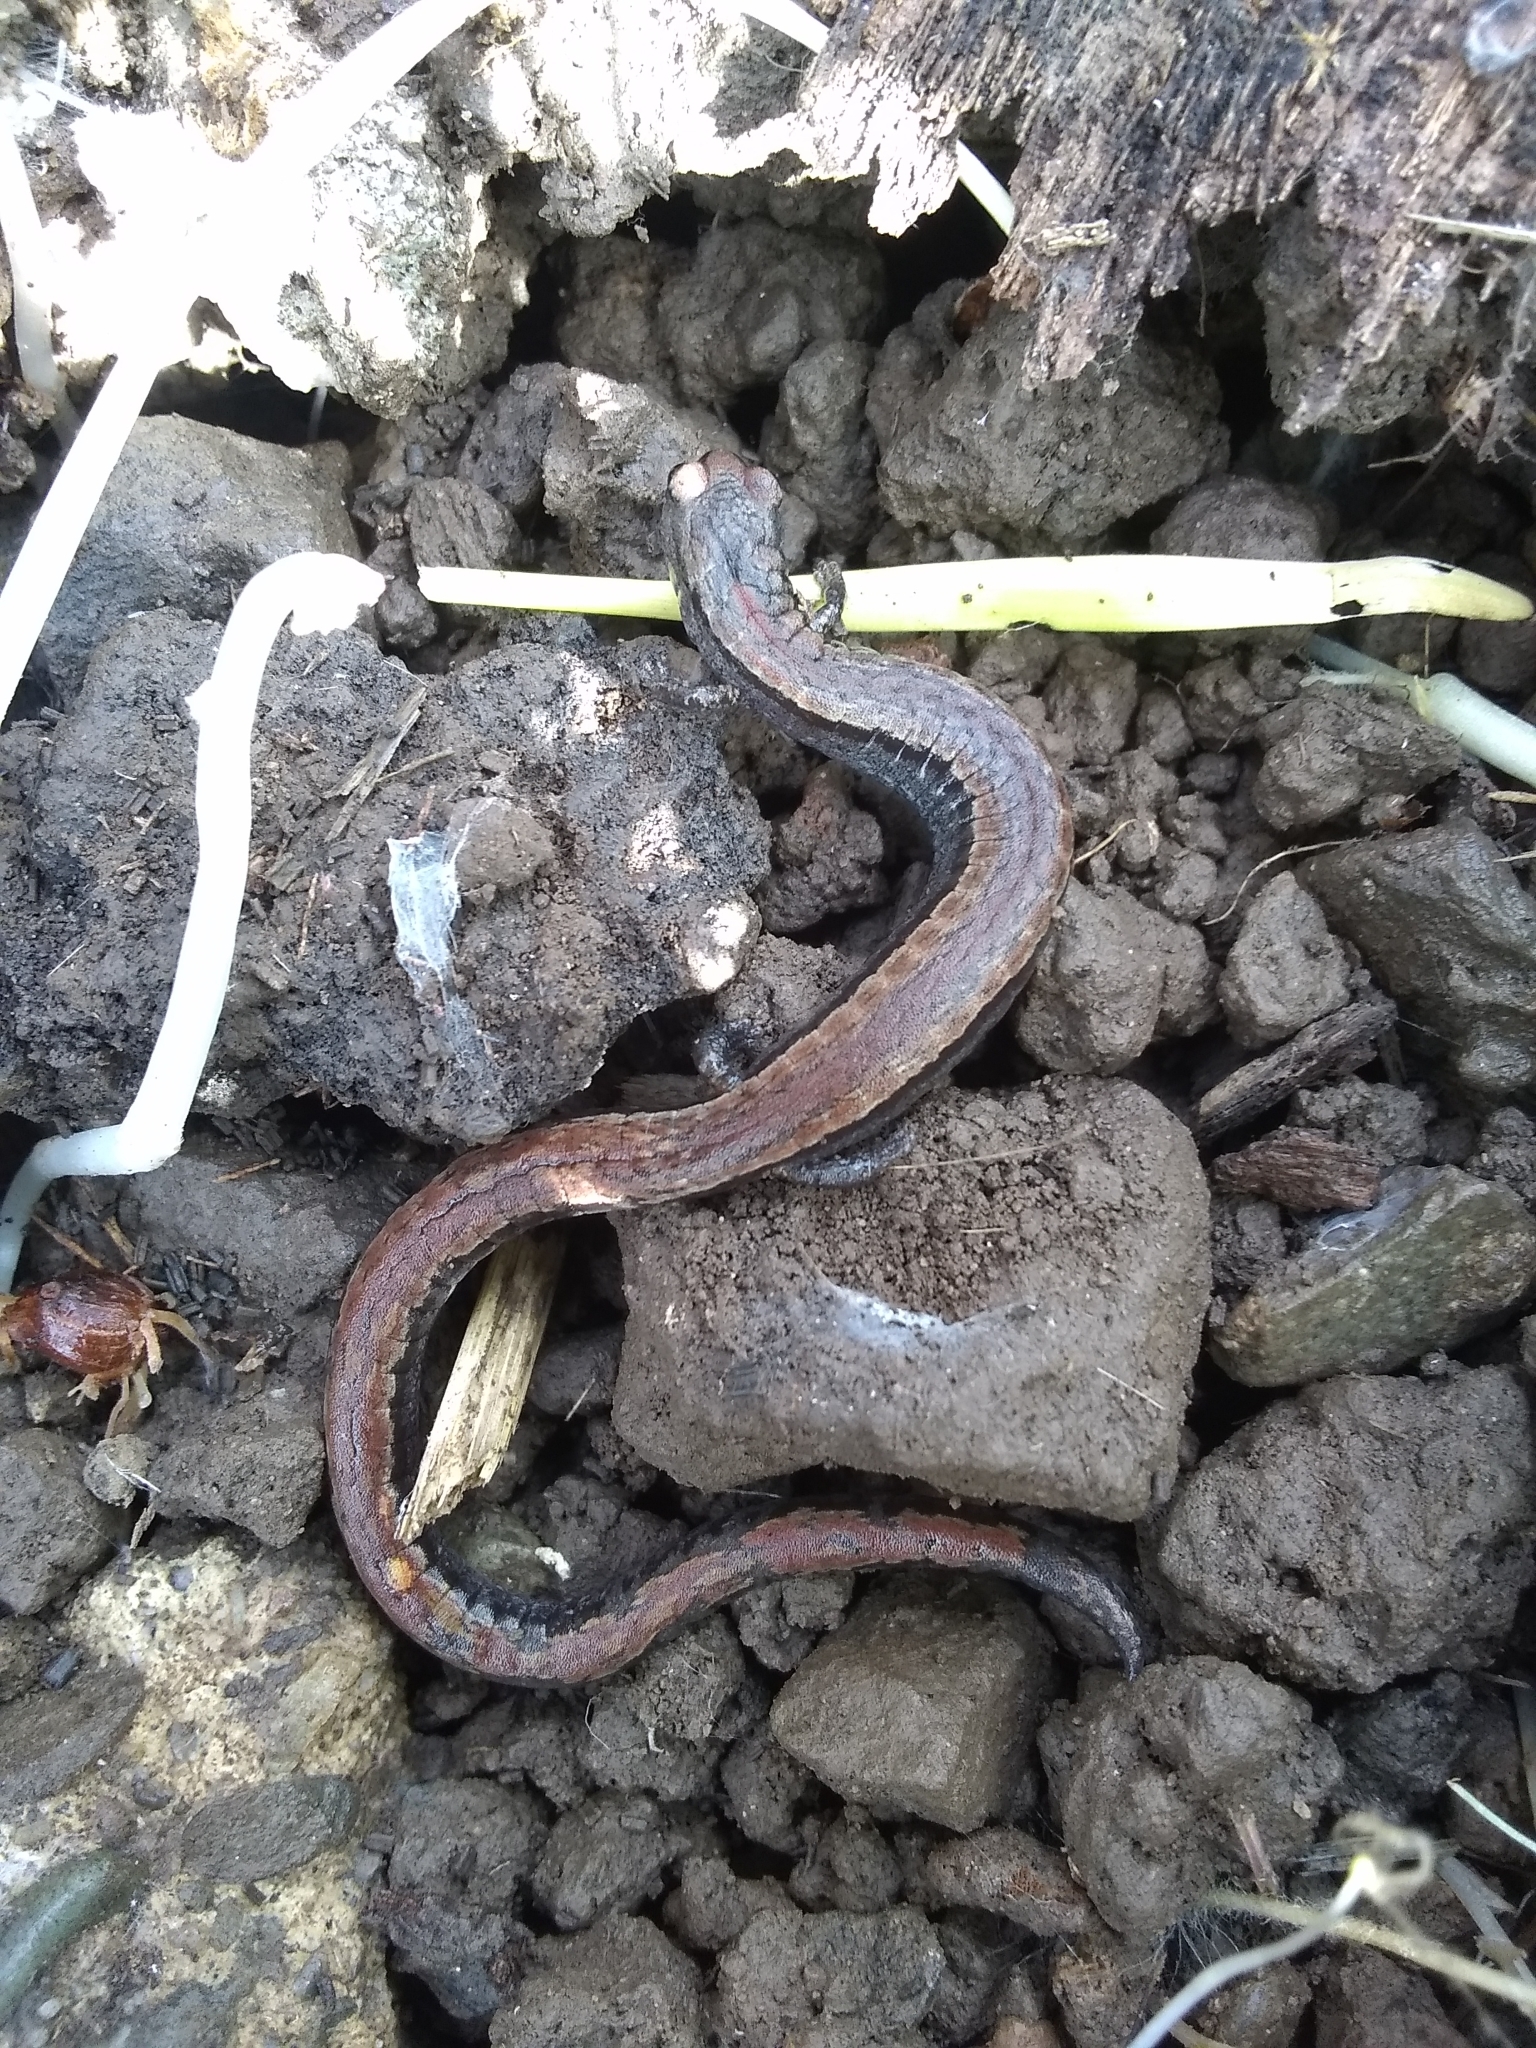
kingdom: Animalia
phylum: Chordata
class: Amphibia
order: Caudata
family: Plethodontidae
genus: Batrachoseps
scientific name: Batrachoseps attenuatus
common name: California slender salamander
